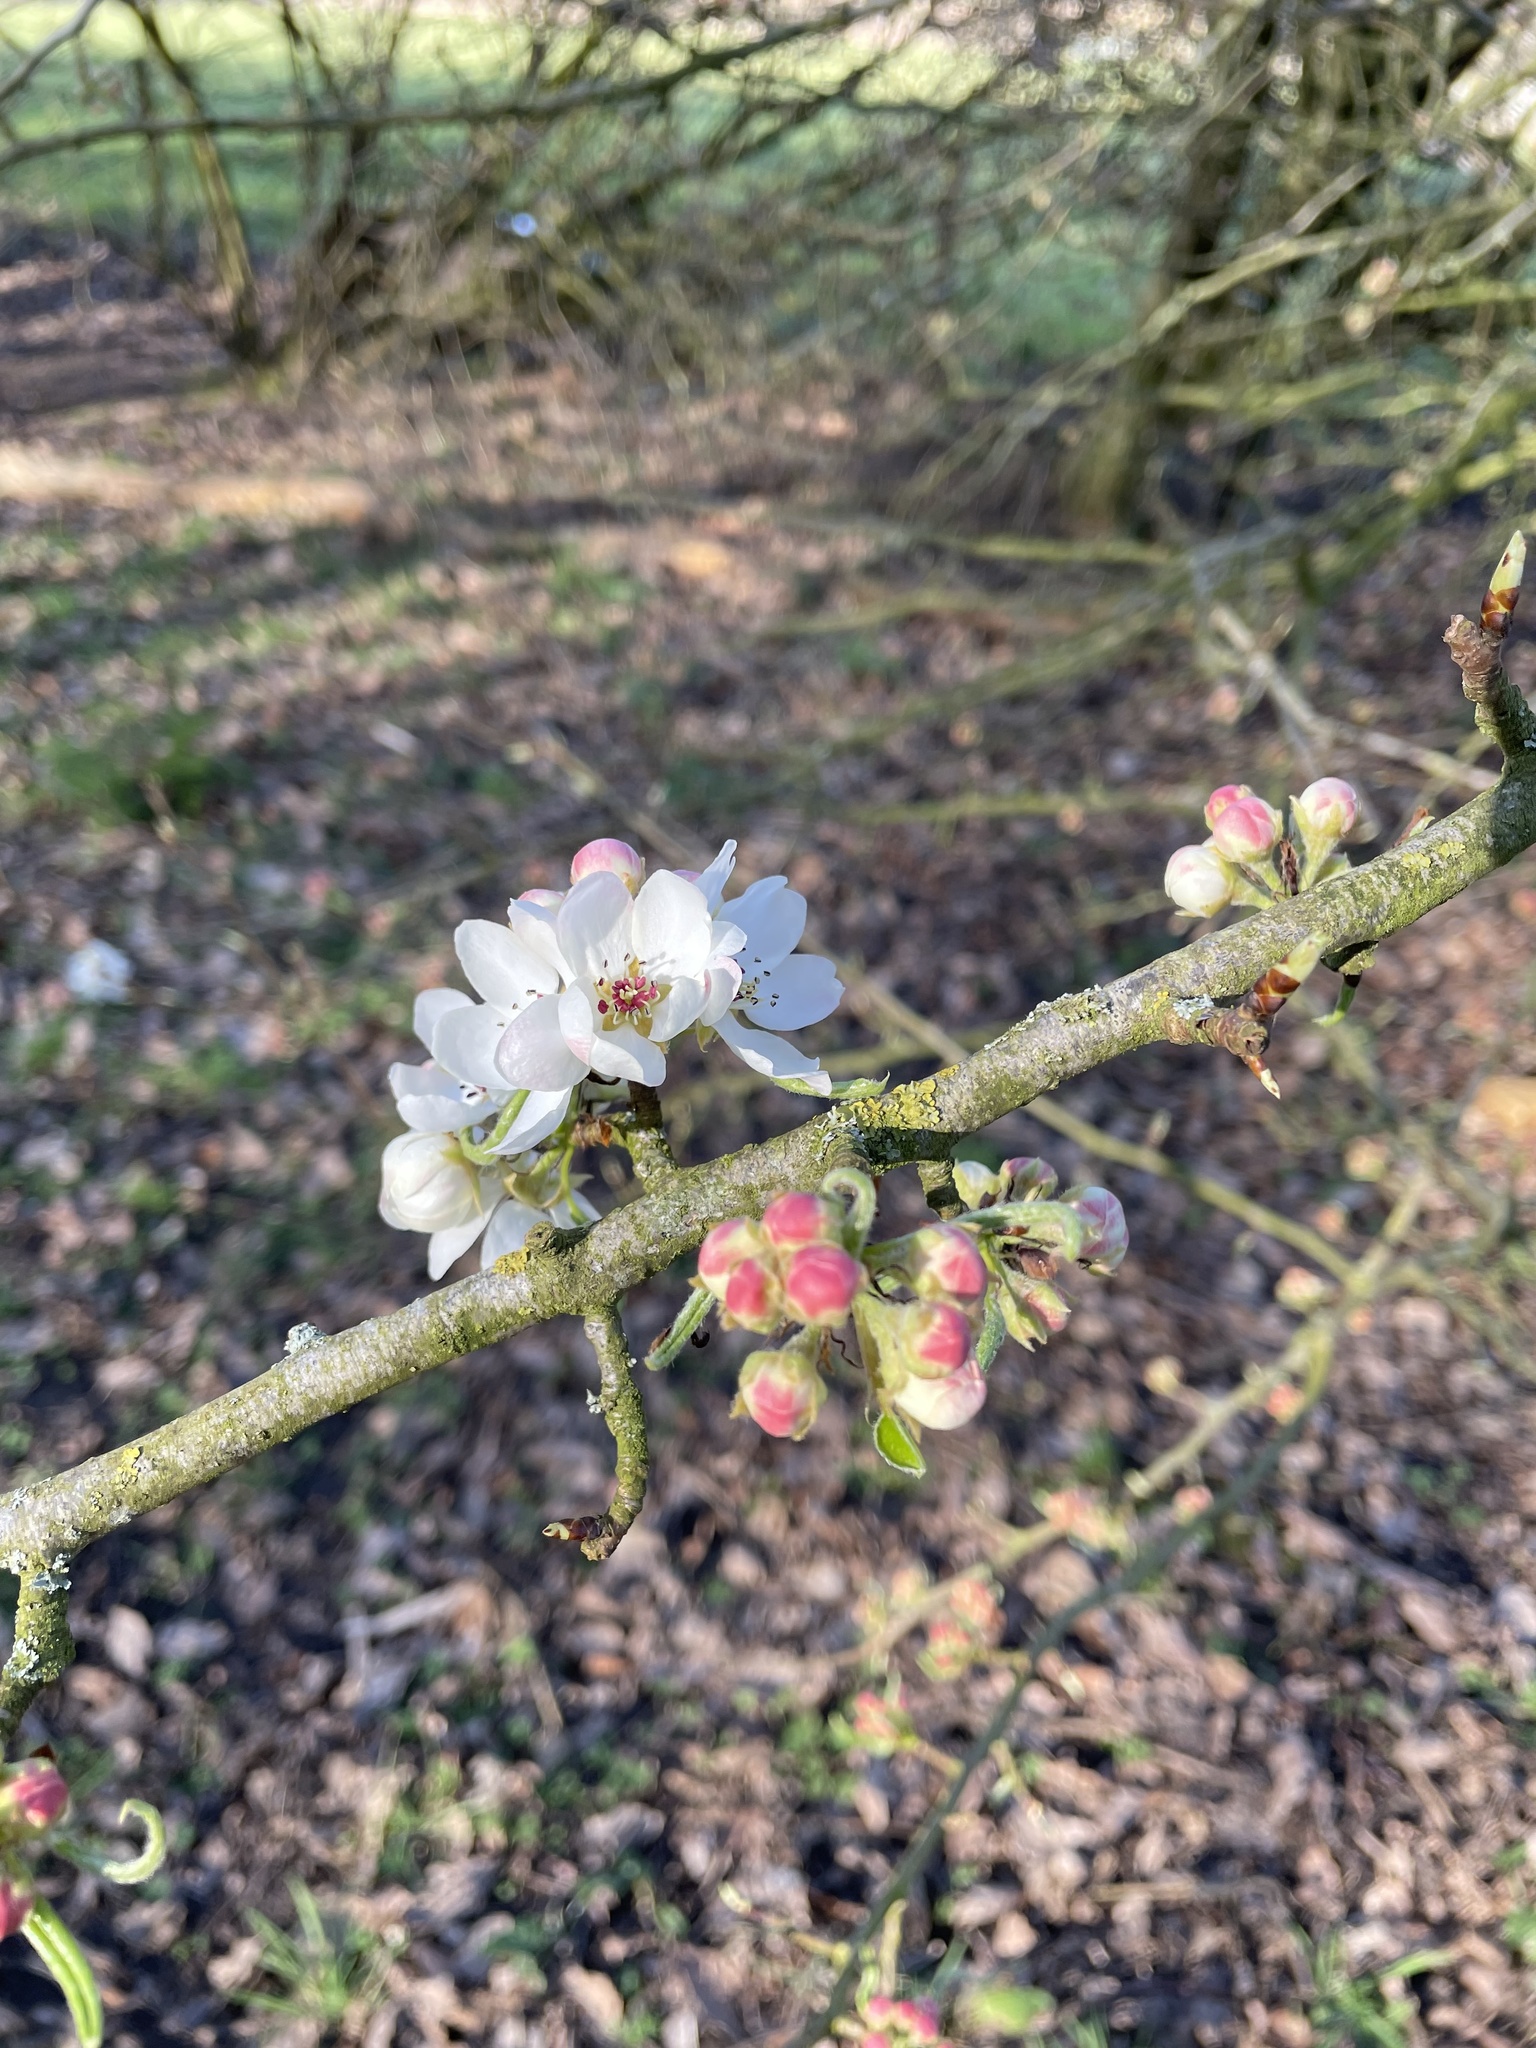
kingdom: Plantae
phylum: Tracheophyta
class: Magnoliopsida
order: Rosales
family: Rosaceae
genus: Malus
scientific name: Malus domestica
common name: Apple
